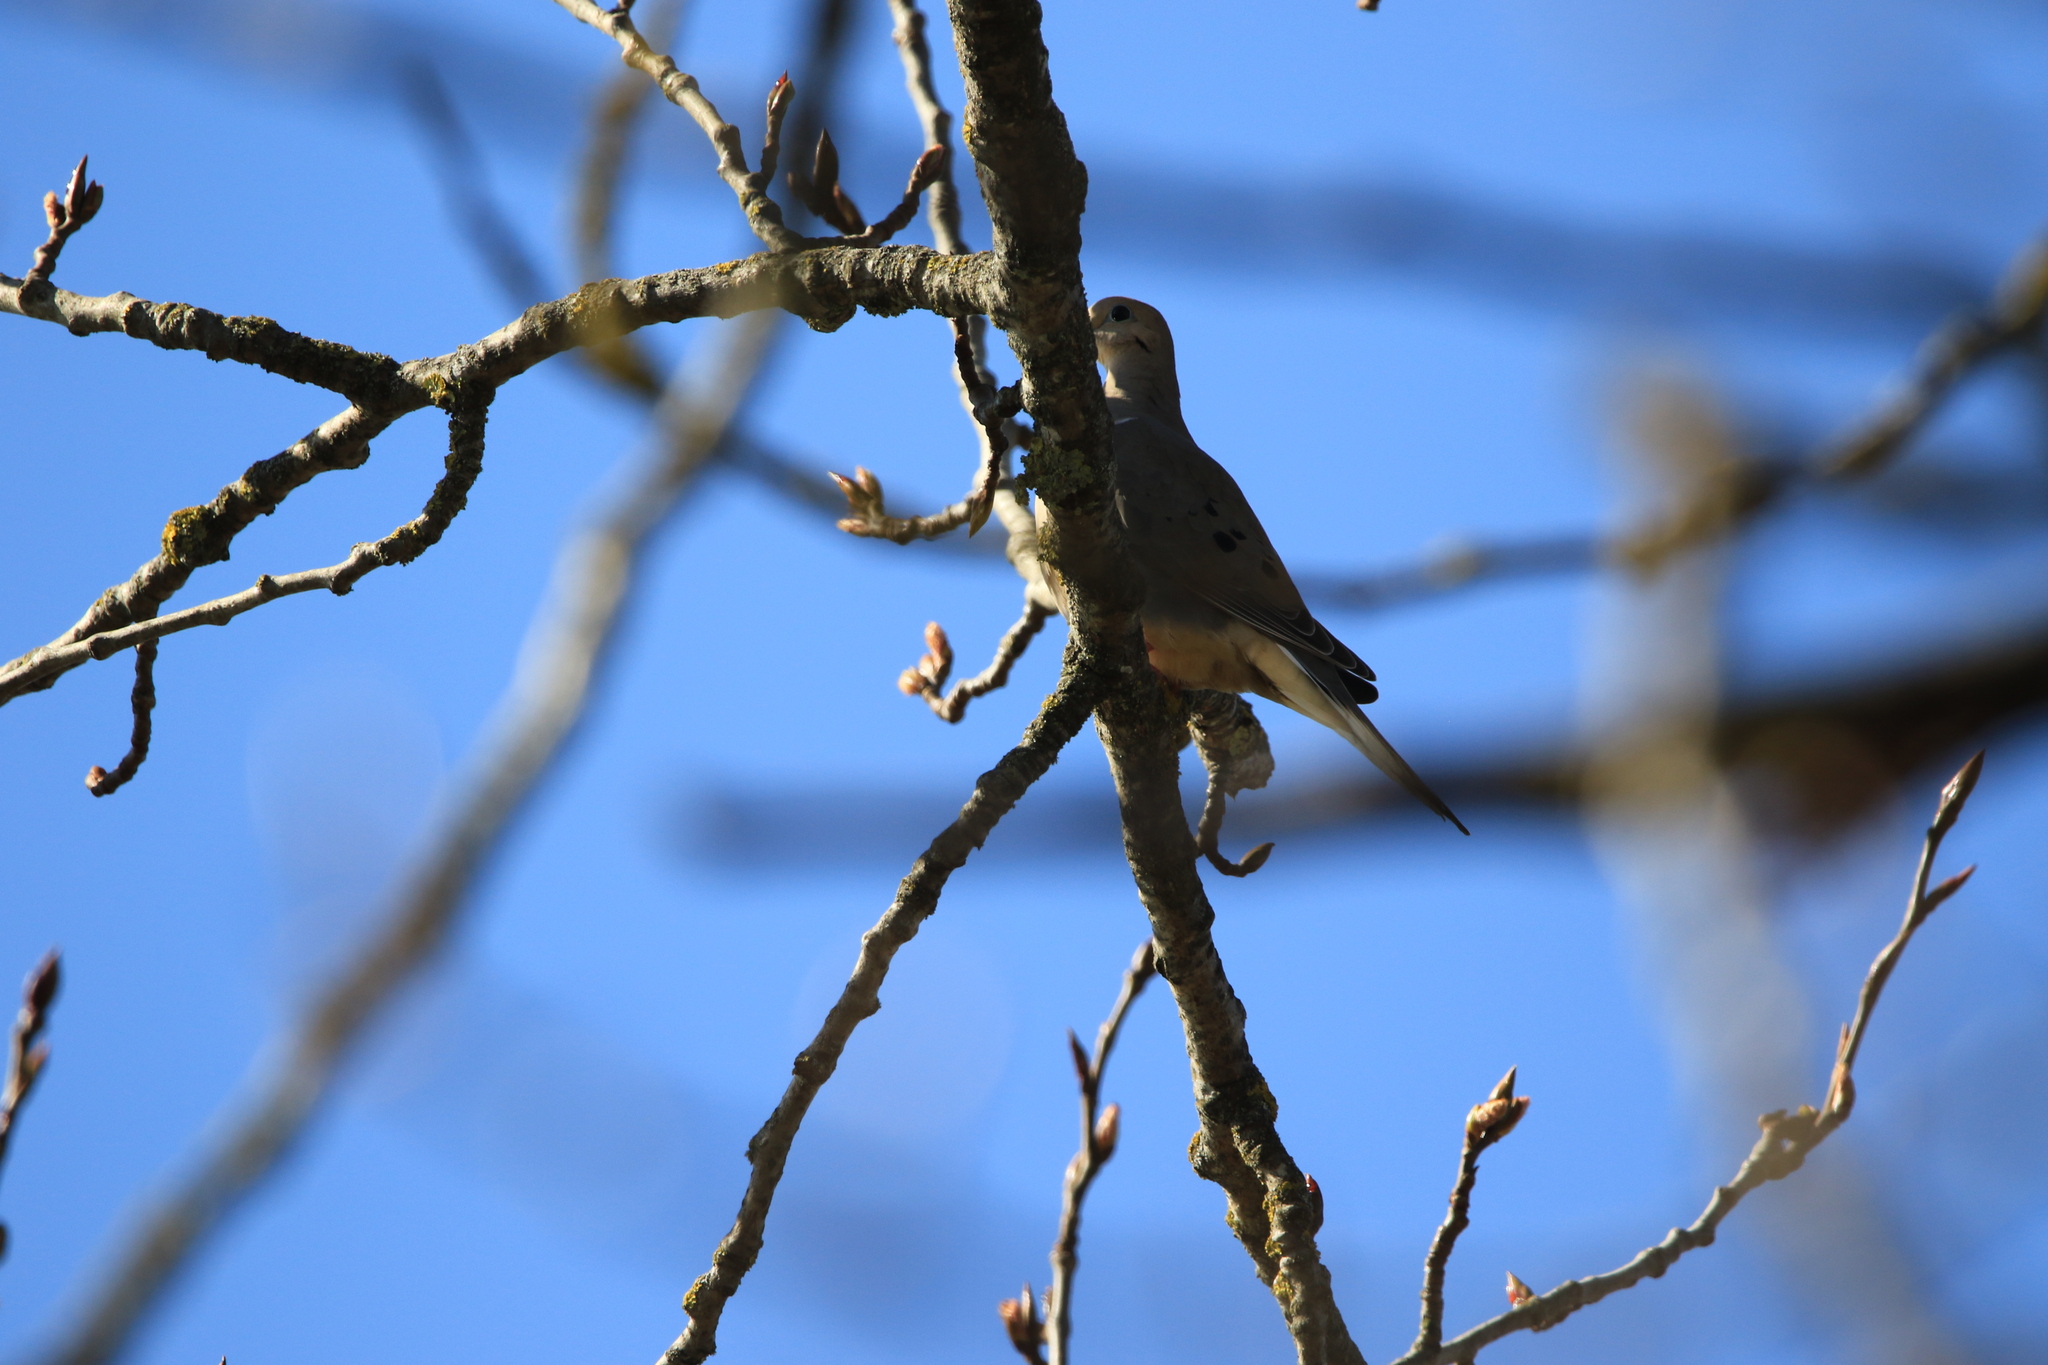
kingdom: Animalia
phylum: Chordata
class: Aves
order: Columbiformes
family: Columbidae
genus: Zenaida
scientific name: Zenaida macroura
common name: Mourning dove
